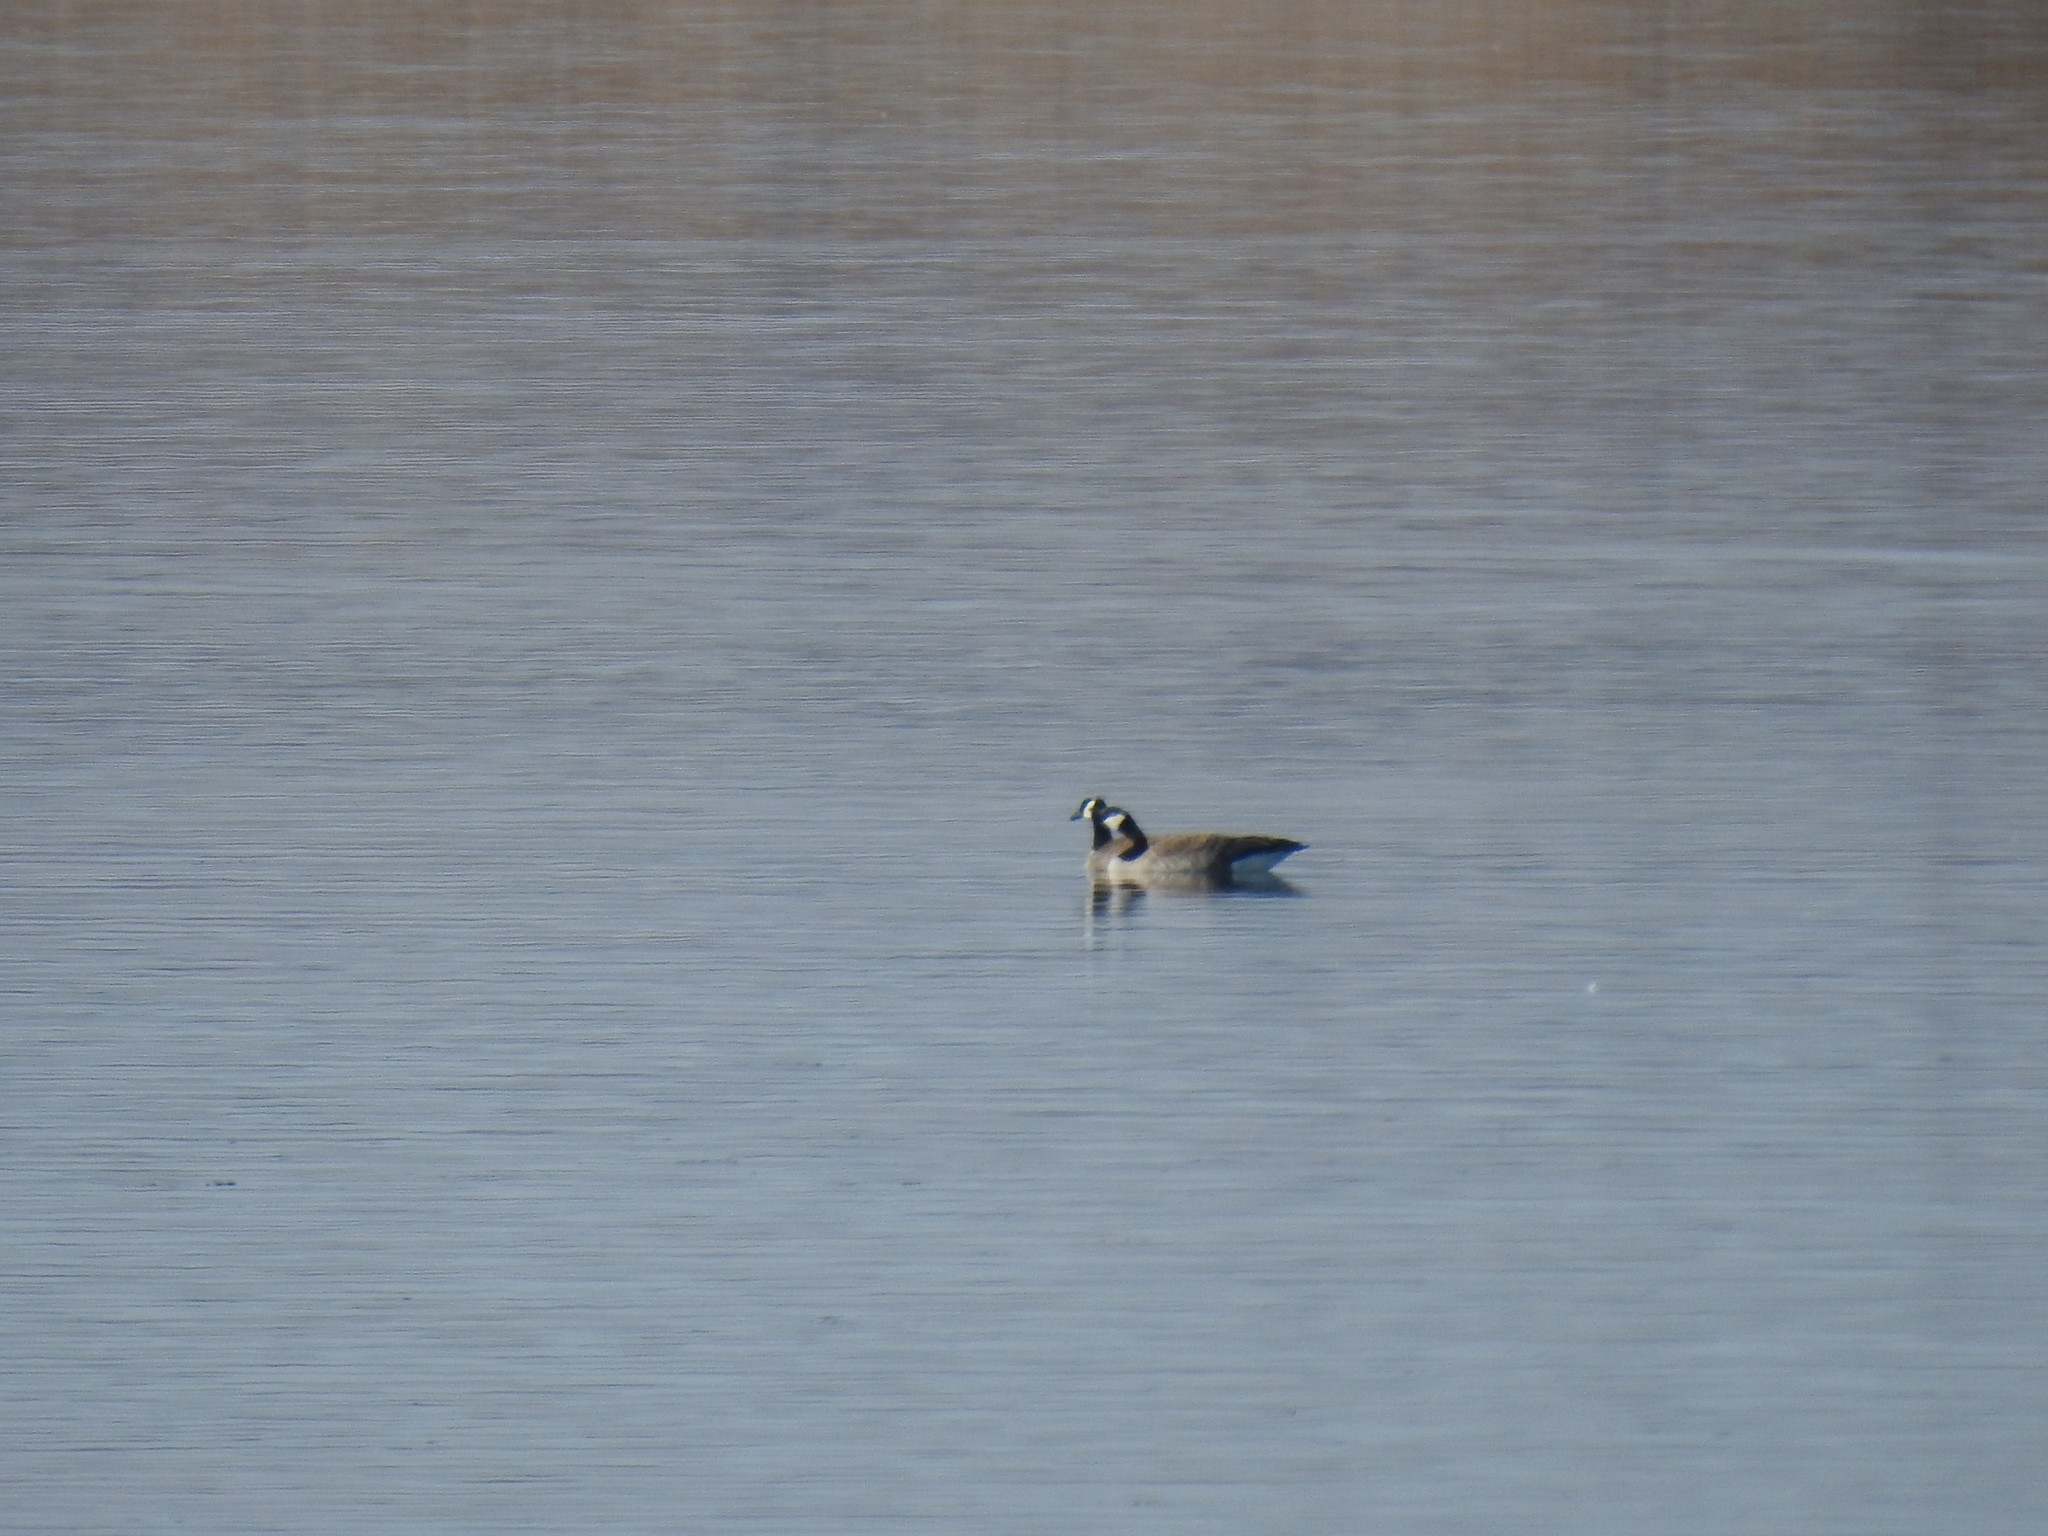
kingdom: Animalia
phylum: Chordata
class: Aves
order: Anseriformes
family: Anatidae
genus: Branta
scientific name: Branta canadensis
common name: Canada goose
